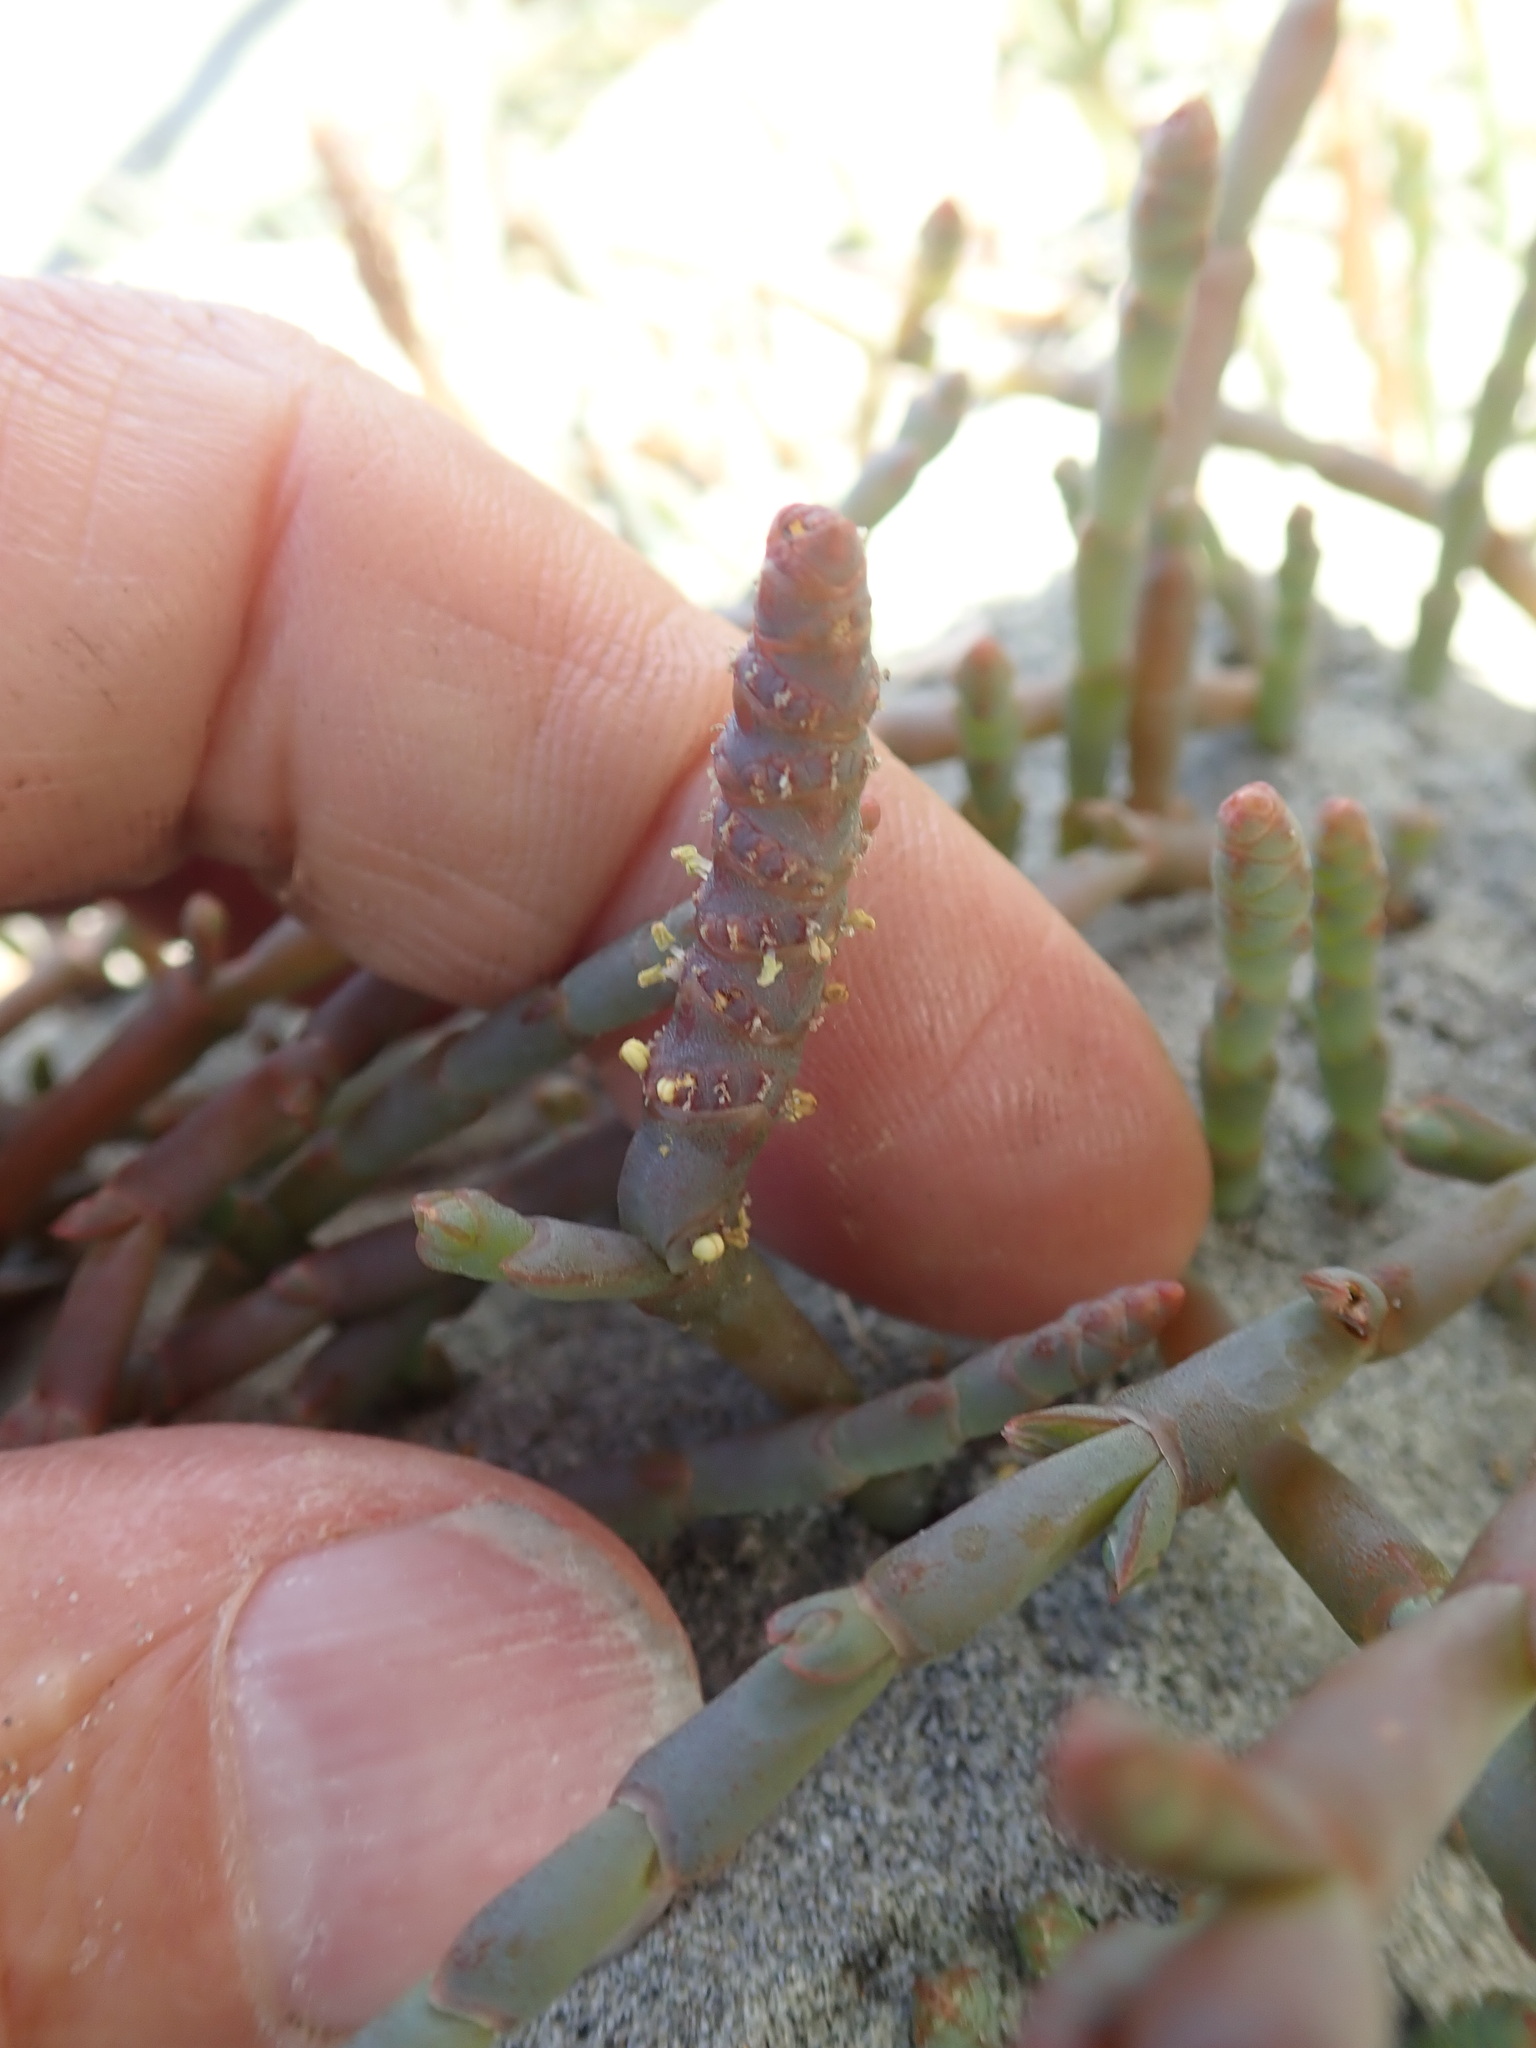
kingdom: Plantae
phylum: Tracheophyta
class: Magnoliopsida
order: Caryophyllales
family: Amaranthaceae
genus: Salicornia
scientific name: Salicornia quinqueflora
